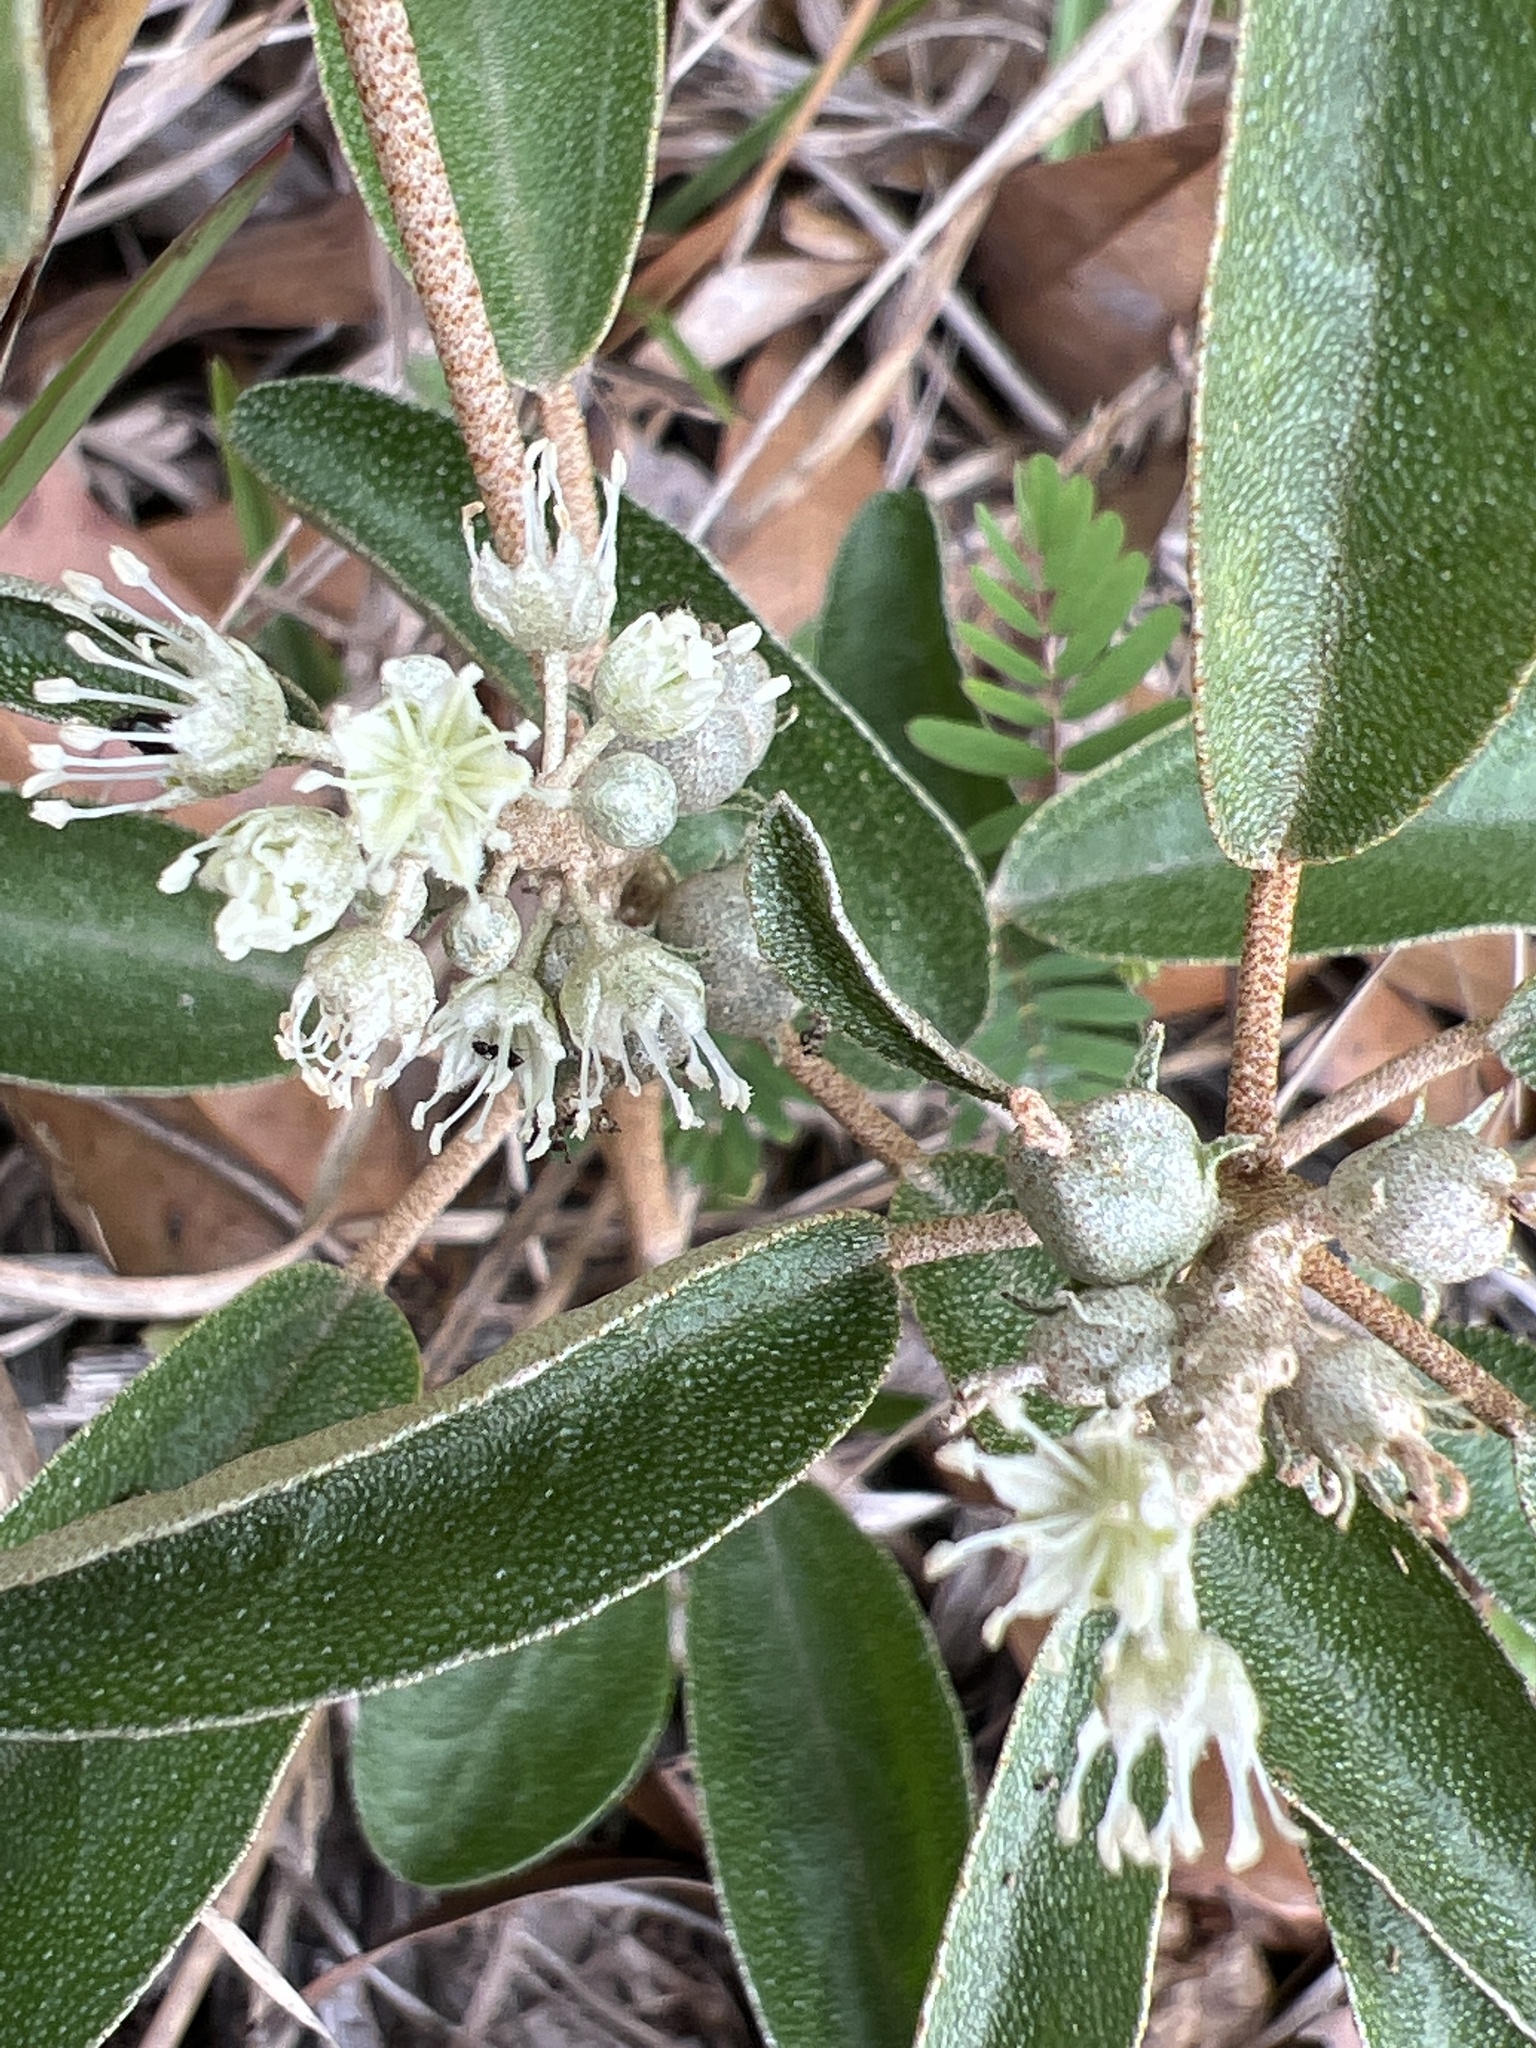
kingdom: Plantae
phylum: Tracheophyta
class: Magnoliopsida
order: Malpighiales
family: Euphorbiaceae
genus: Croton
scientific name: Croton argyranthemus
